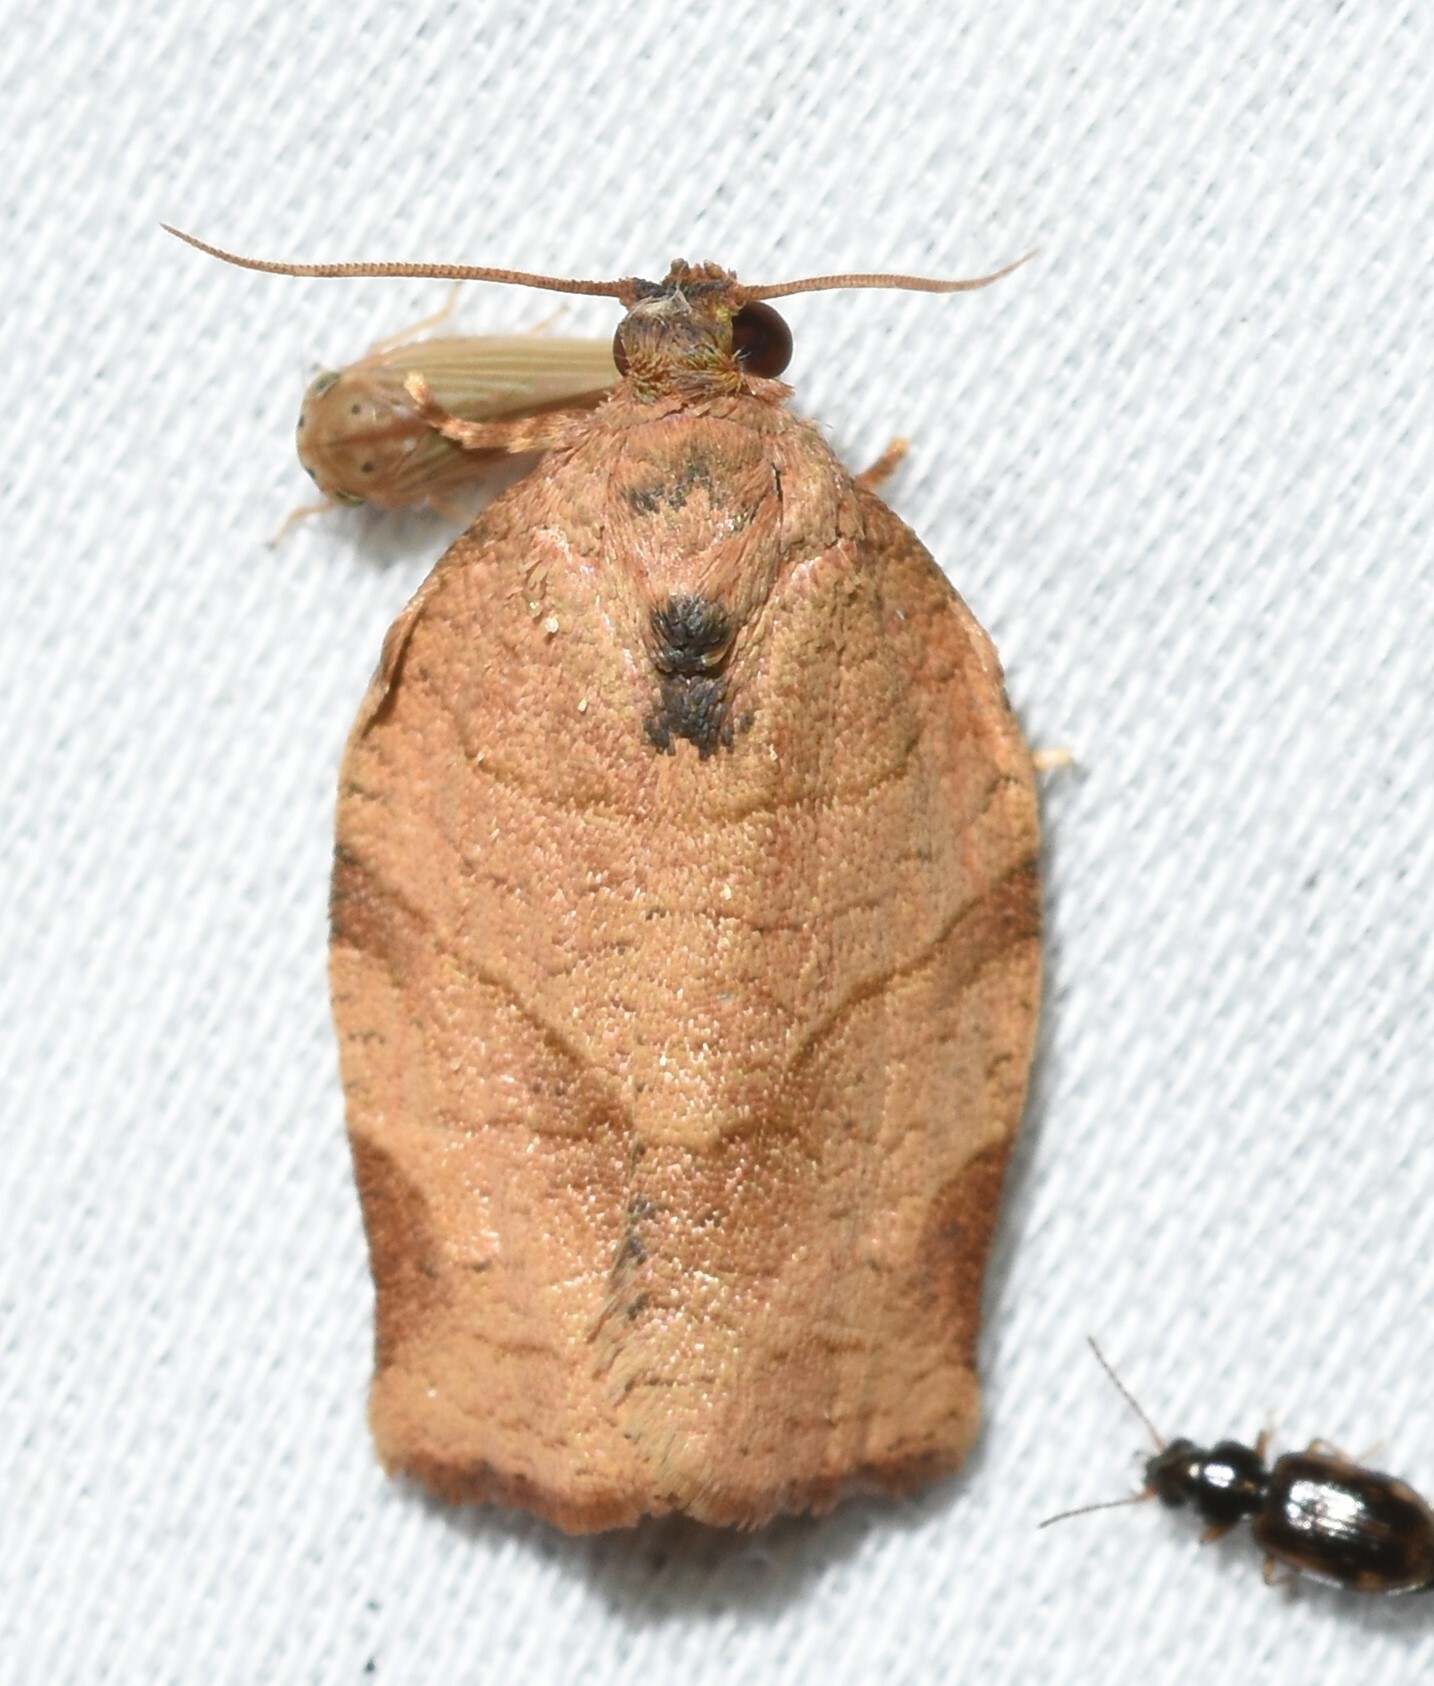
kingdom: Animalia
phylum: Arthropoda
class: Insecta
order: Lepidoptera
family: Tortricidae
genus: Choristoneura
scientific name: Choristoneura rosaceana
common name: Oblique-banded leafroller moth
